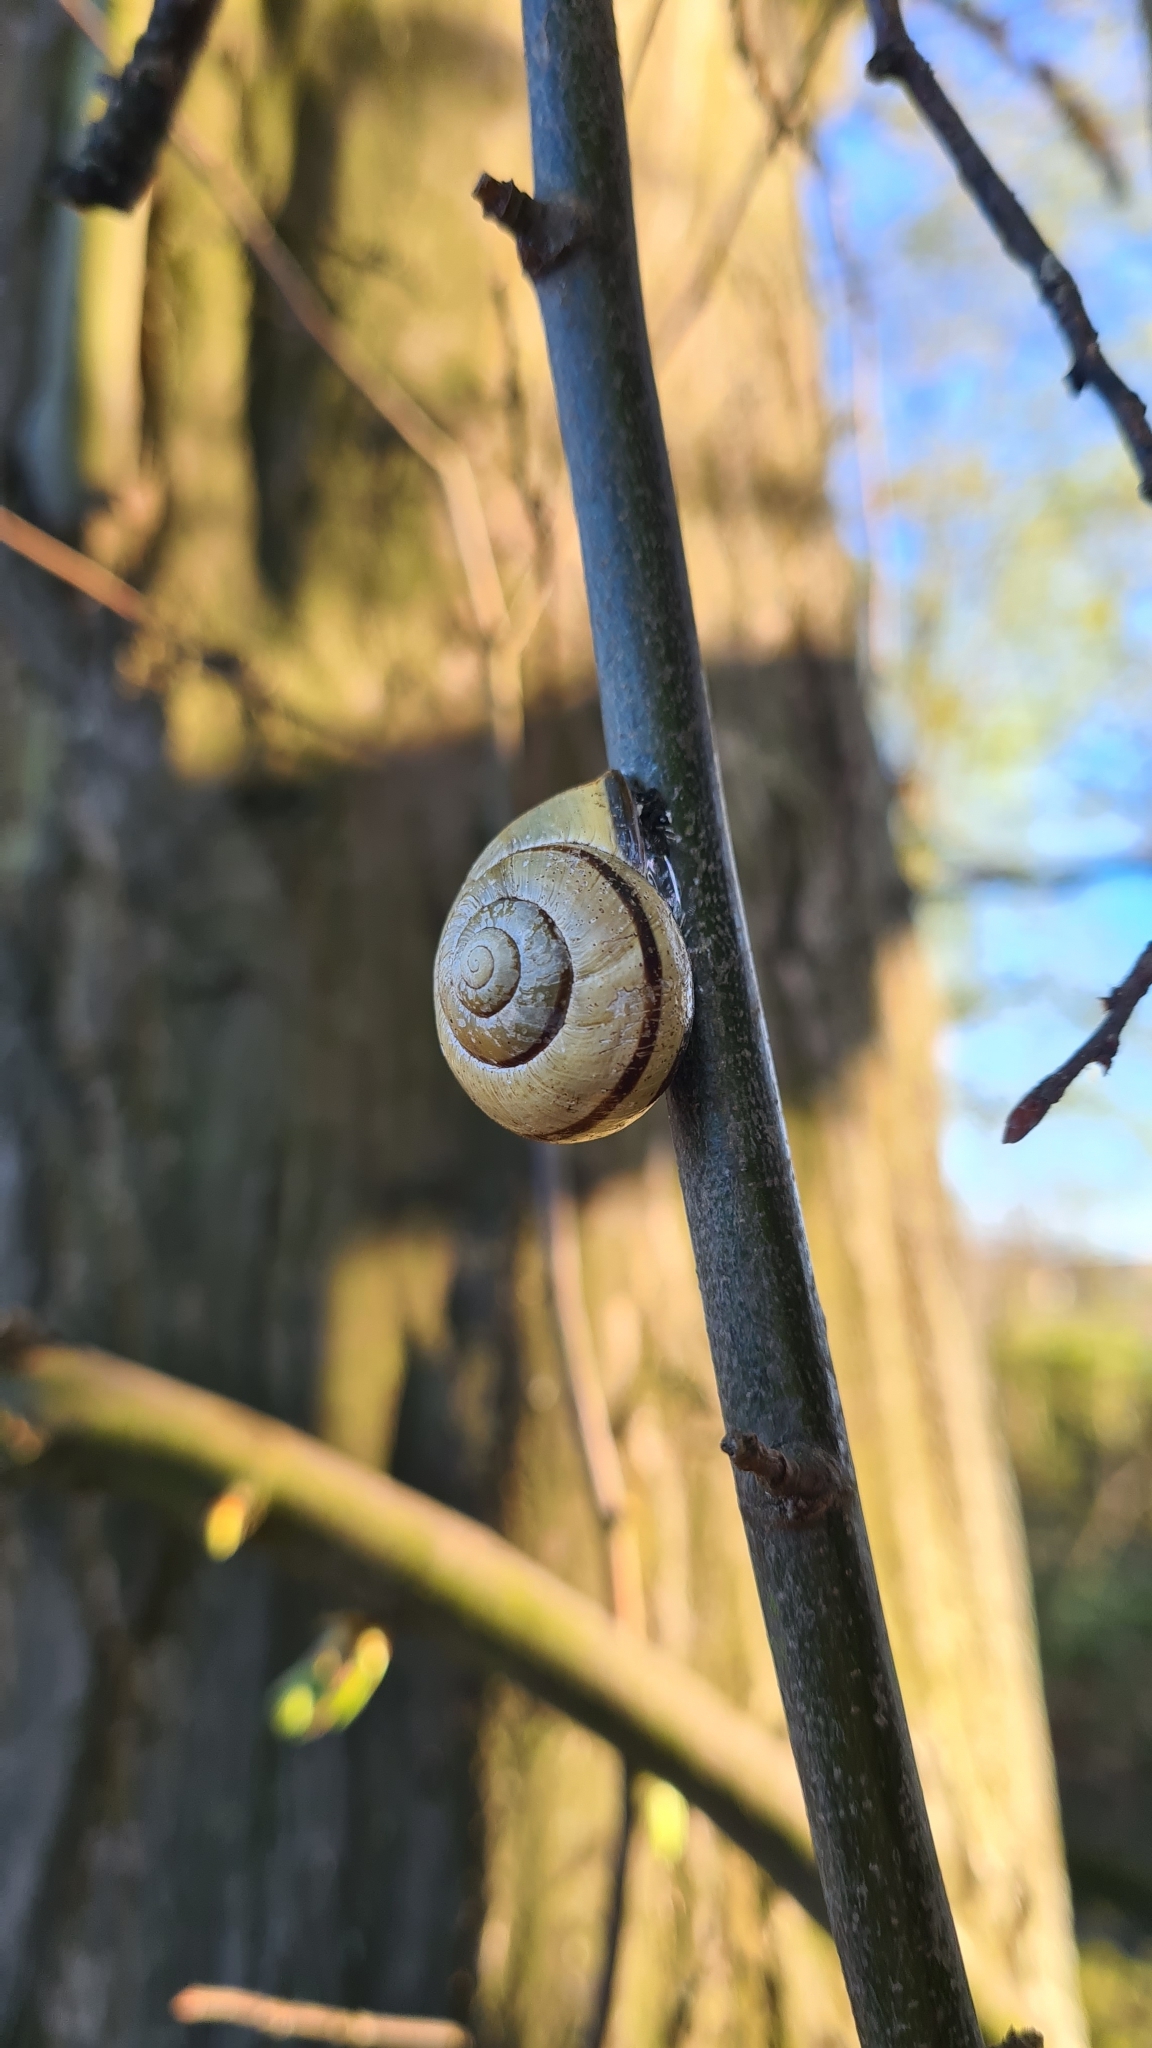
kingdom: Animalia
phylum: Mollusca
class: Gastropoda
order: Stylommatophora
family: Helicidae
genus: Cepaea
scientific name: Cepaea nemoralis
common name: Grovesnail
